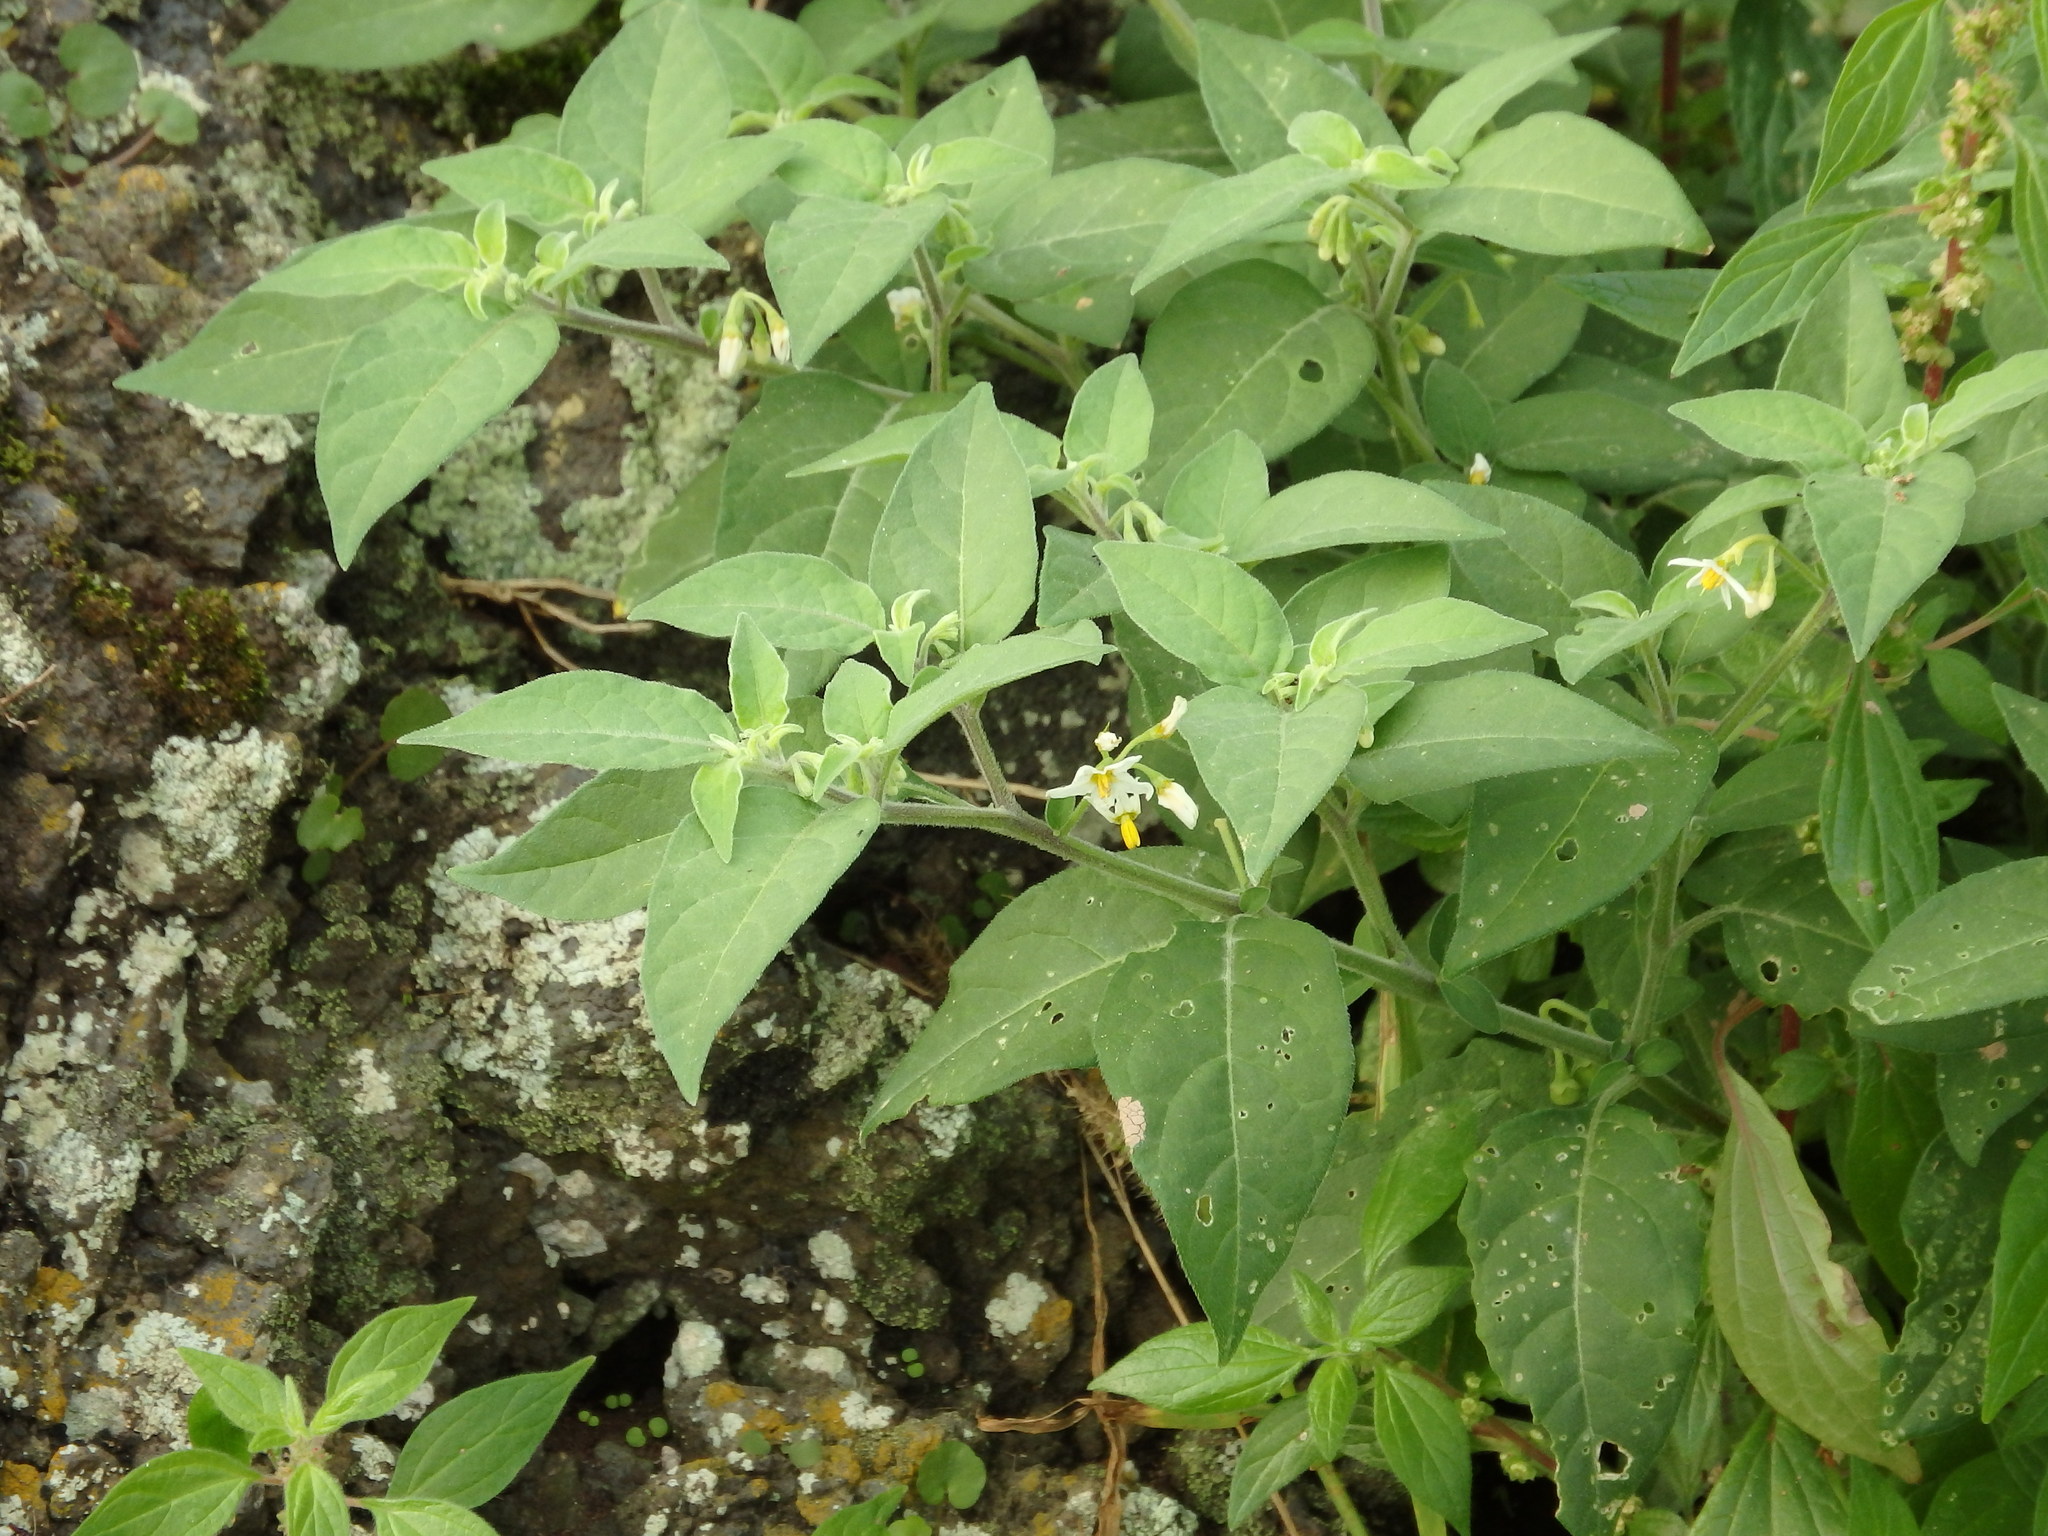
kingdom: Plantae
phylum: Tracheophyta
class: Magnoliopsida
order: Solanales
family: Solanaceae
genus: Solanum
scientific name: Solanum chenopodioides
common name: Tall nightshade
